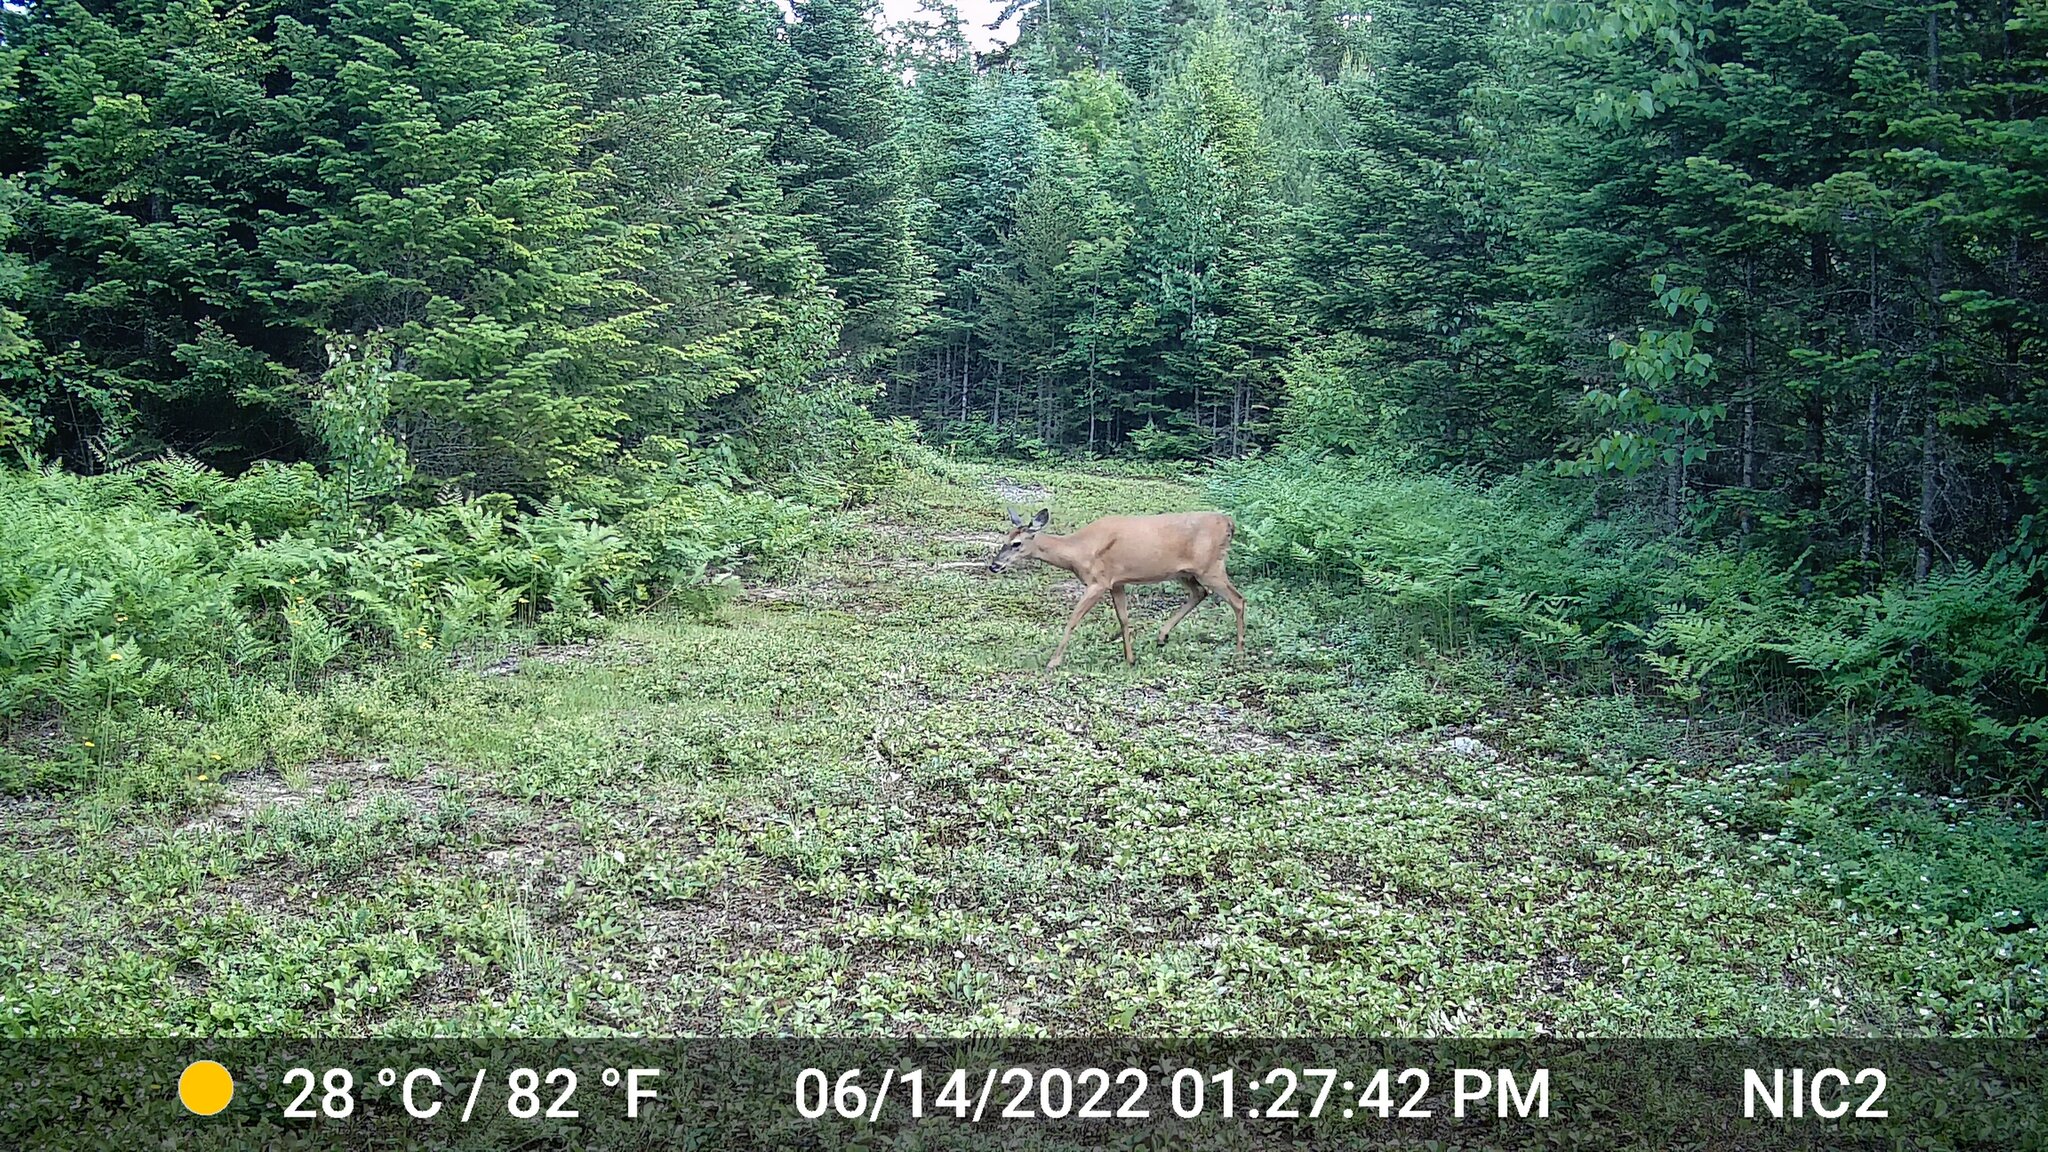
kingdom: Animalia
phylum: Chordata
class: Mammalia
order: Artiodactyla
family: Cervidae
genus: Odocoileus
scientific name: Odocoileus virginianus
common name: White-tailed deer
